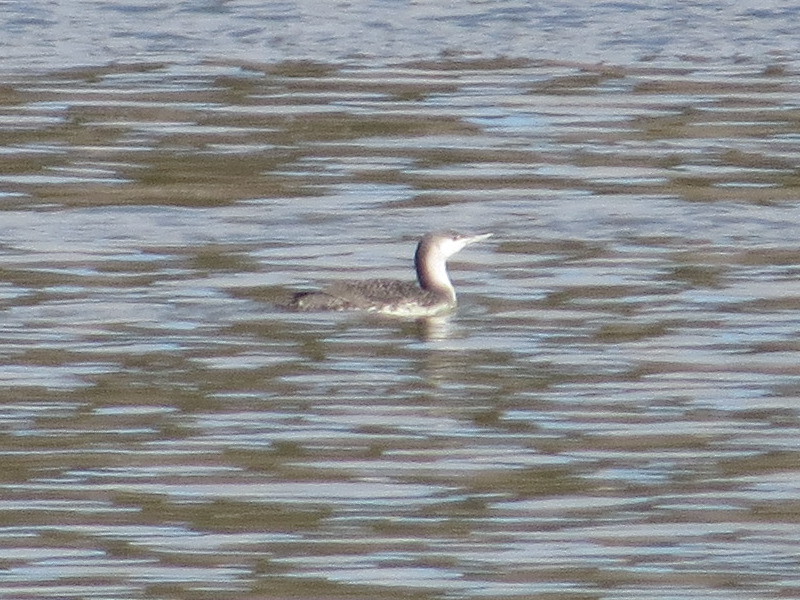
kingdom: Animalia
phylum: Chordata
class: Aves
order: Gaviiformes
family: Gaviidae
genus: Gavia
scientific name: Gavia stellata
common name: Red-throated loon
